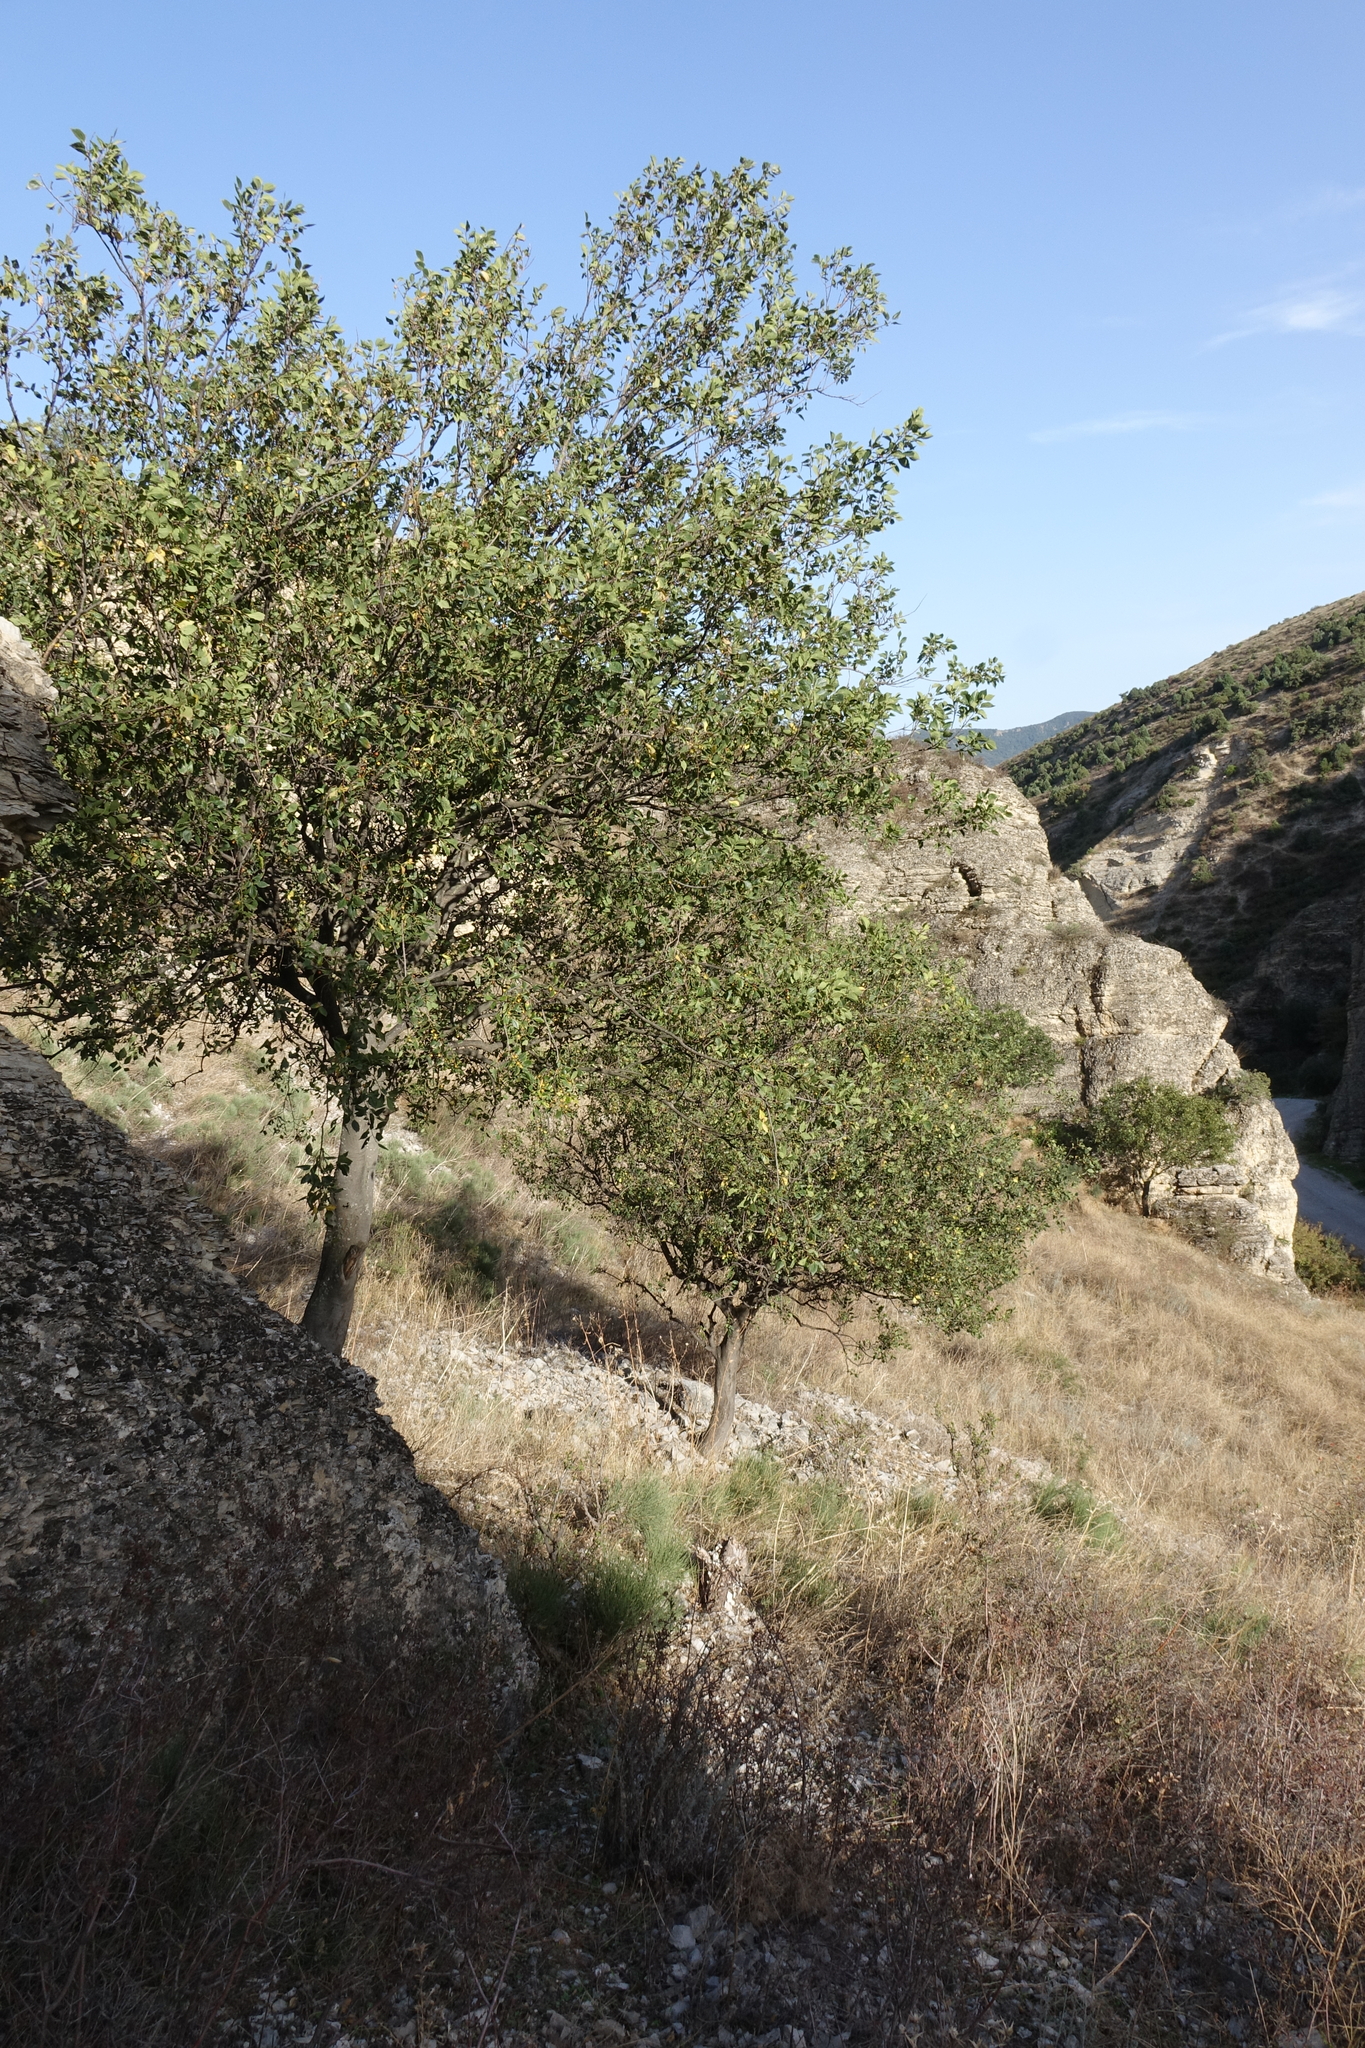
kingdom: Plantae
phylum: Tracheophyta
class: Magnoliopsida
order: Rosales
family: Cannabaceae
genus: Celtis
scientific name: Celtis glabrata
